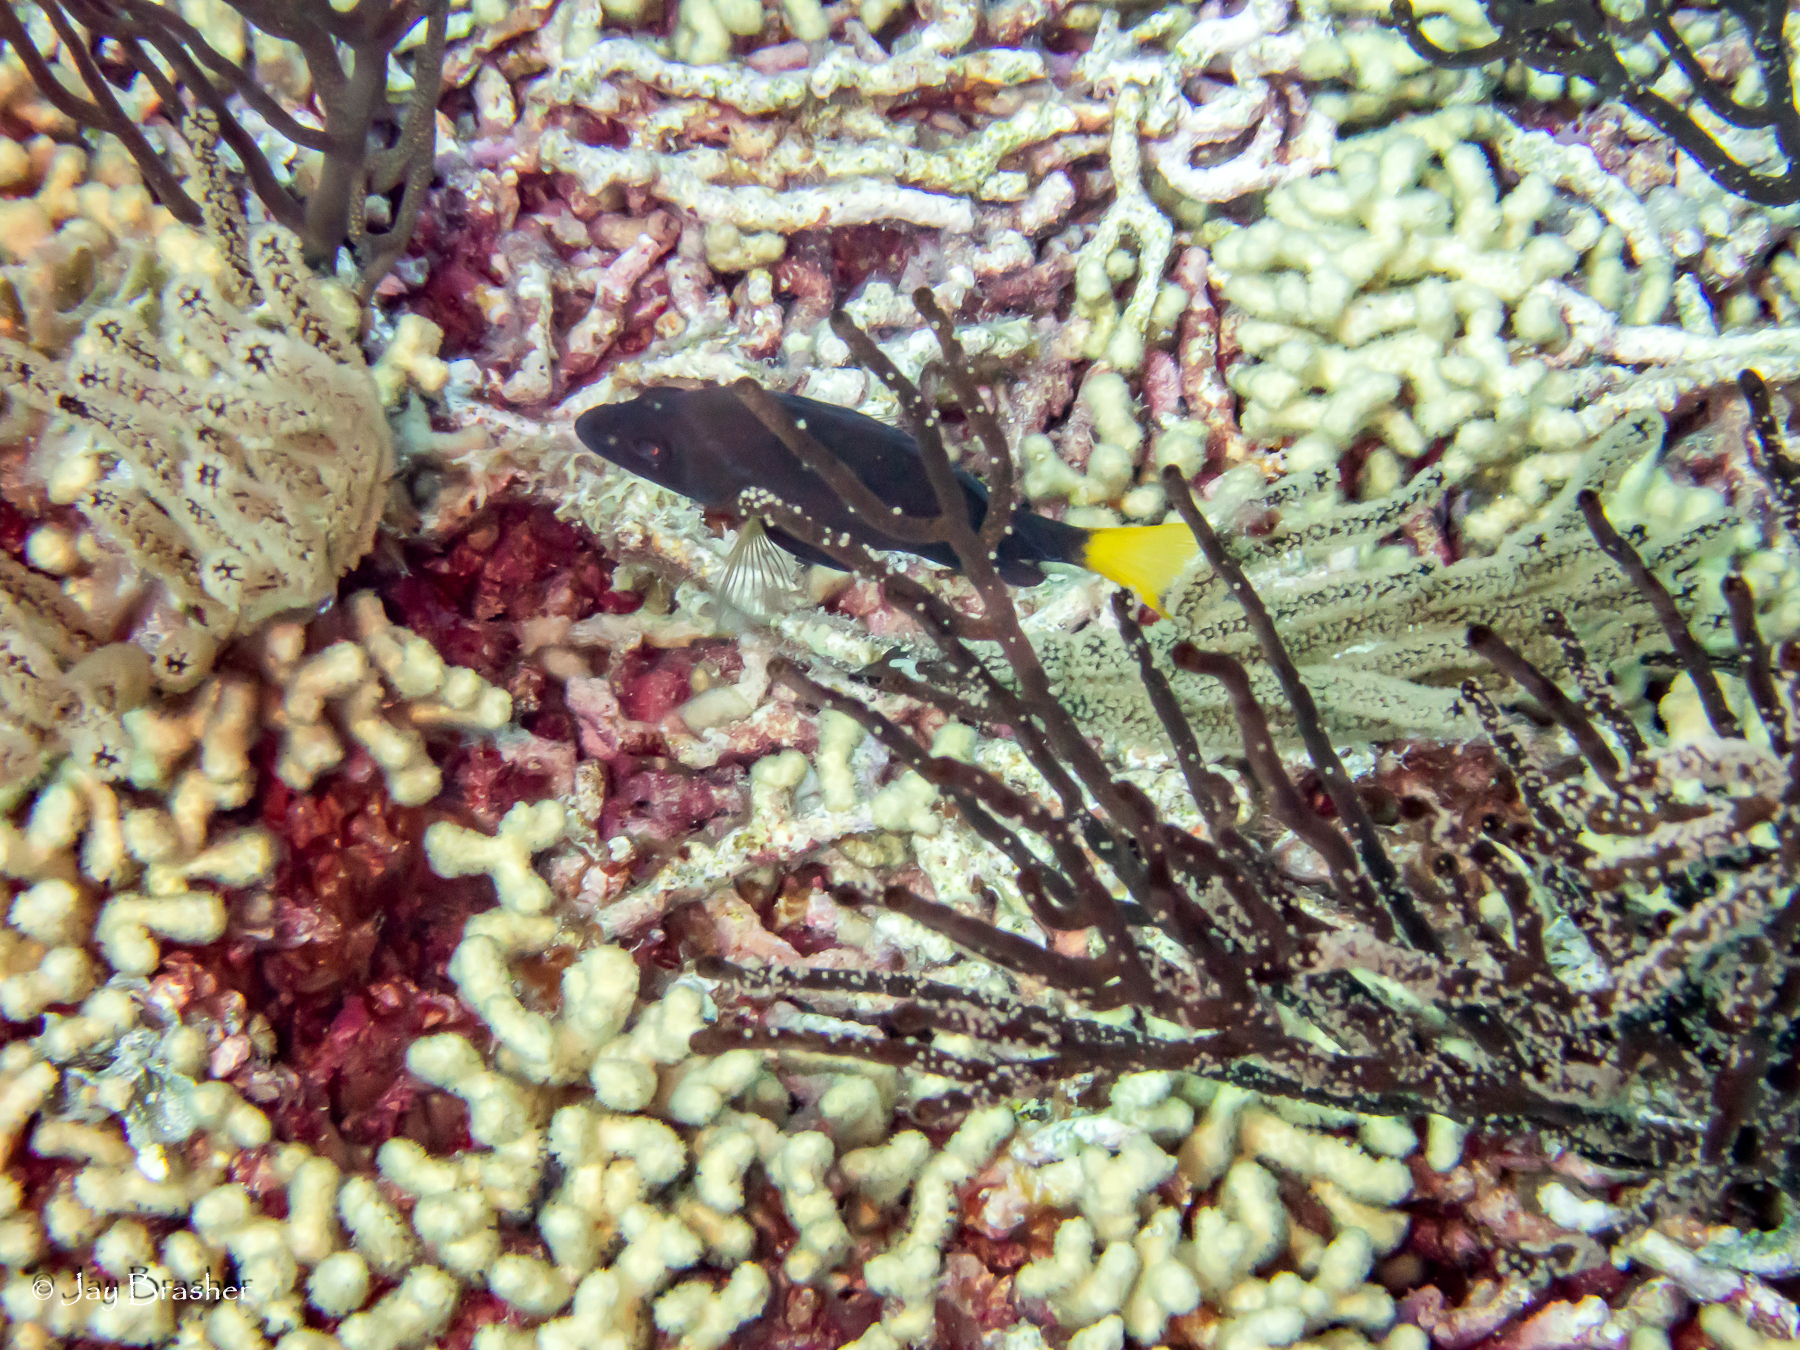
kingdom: Animalia
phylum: Chordata
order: Perciformes
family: Serranidae
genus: Hypoplectrus
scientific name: Hypoplectrus chlorurus
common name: Yellowtail hamlet
